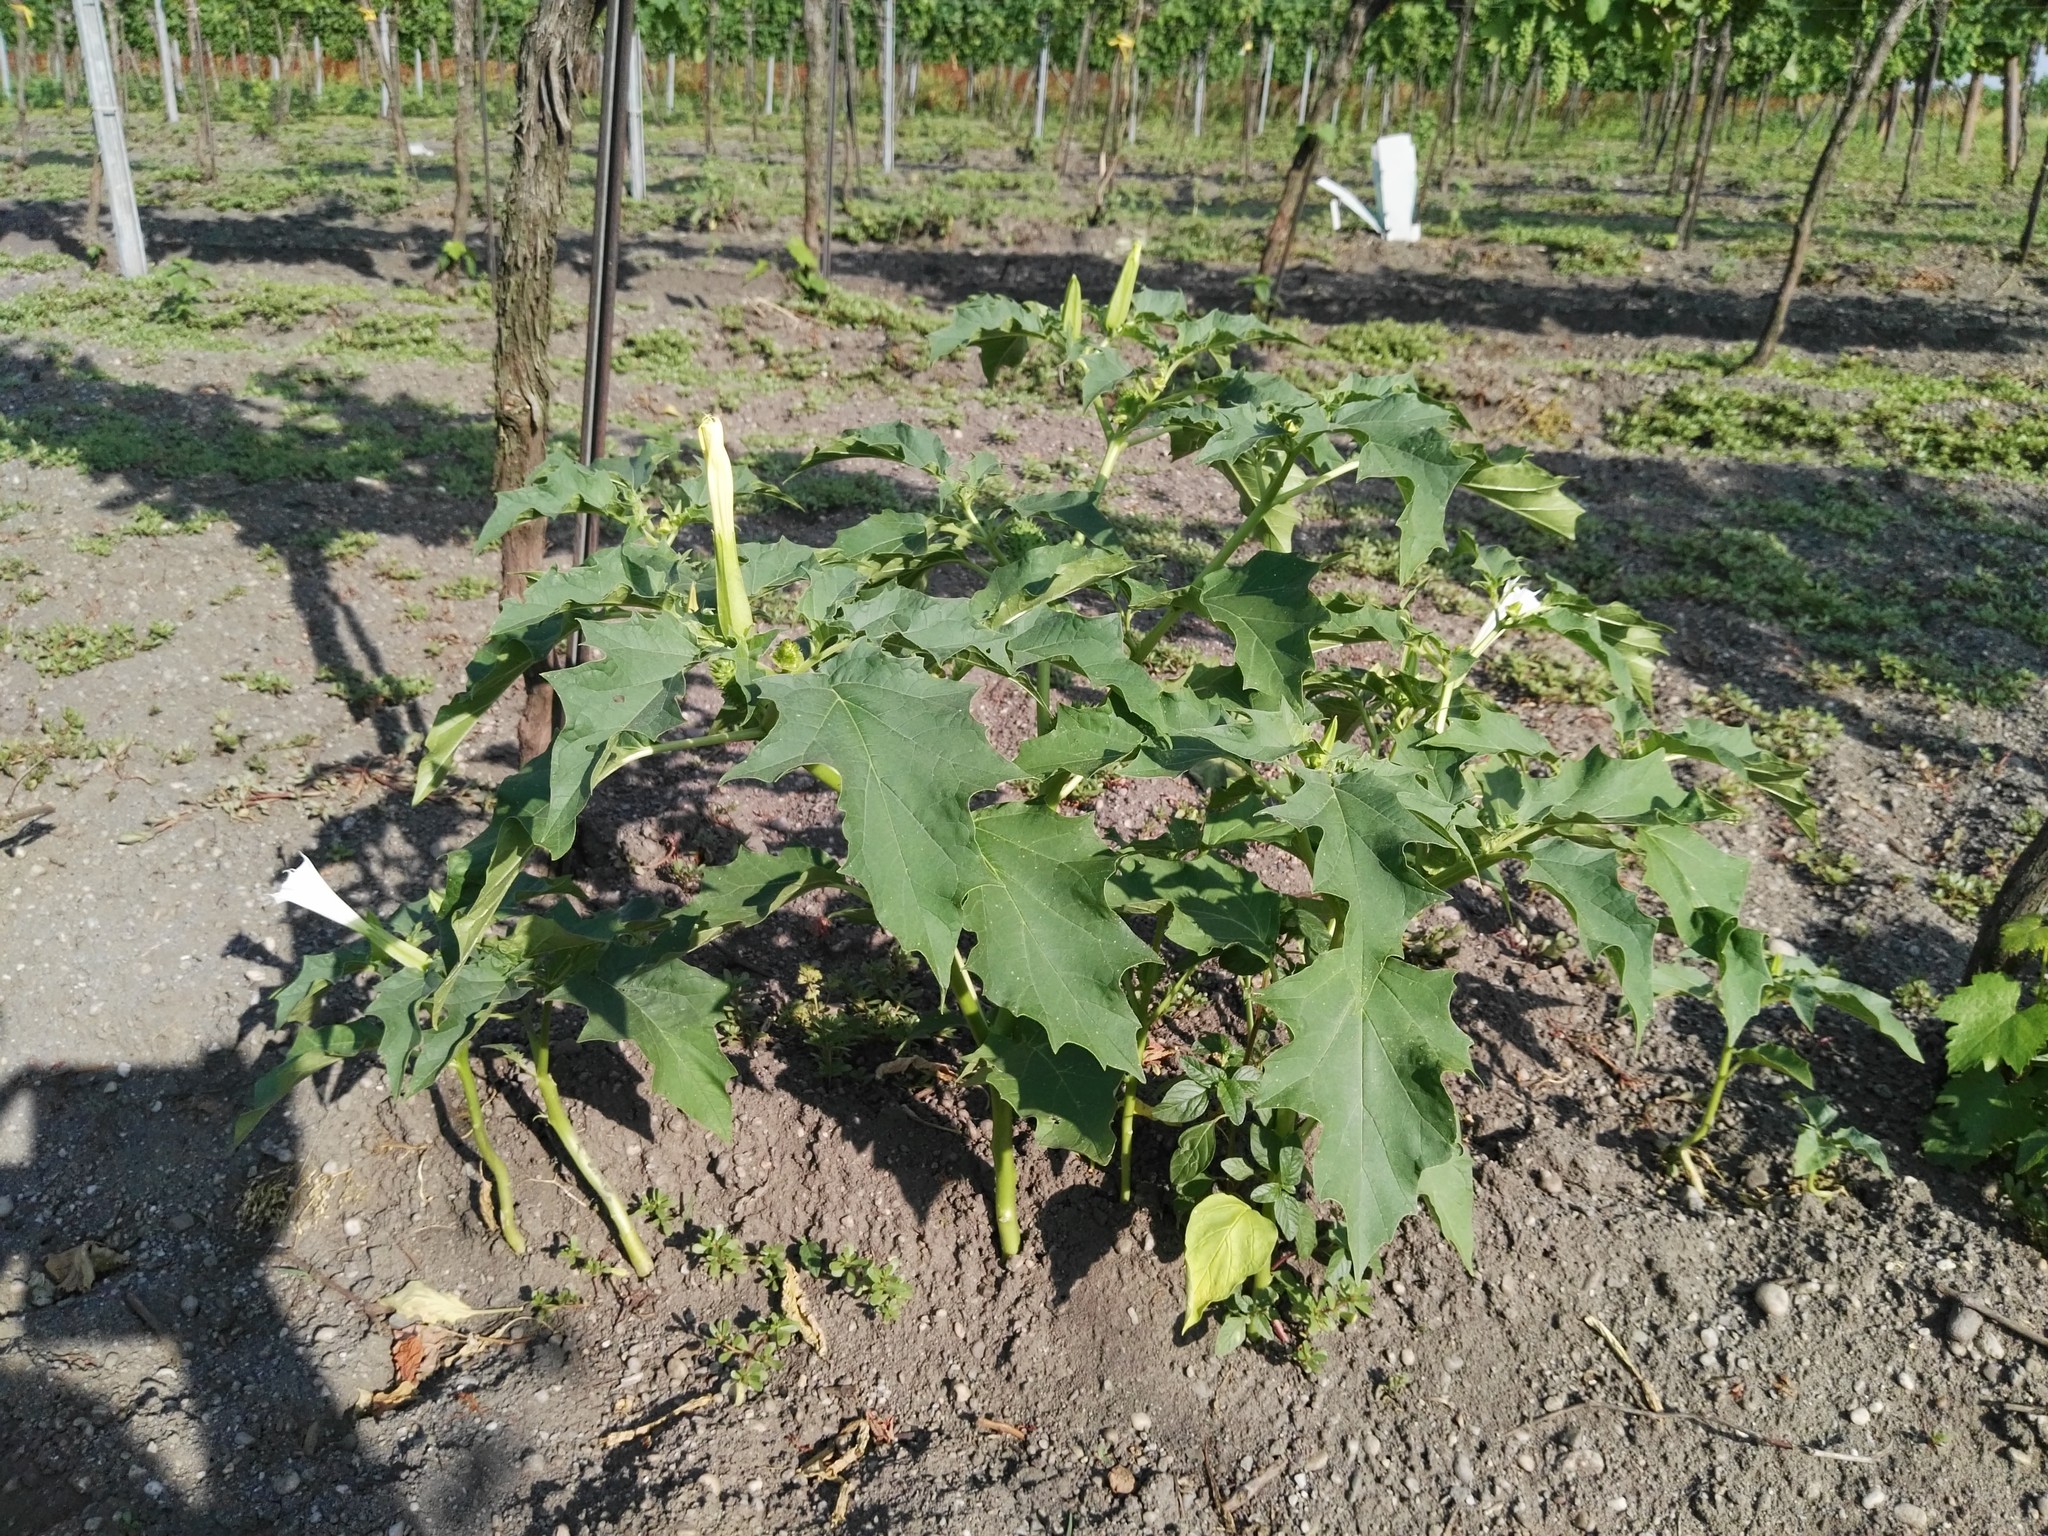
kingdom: Plantae
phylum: Tracheophyta
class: Magnoliopsida
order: Solanales
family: Solanaceae
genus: Datura
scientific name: Datura stramonium
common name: Thorn-apple
